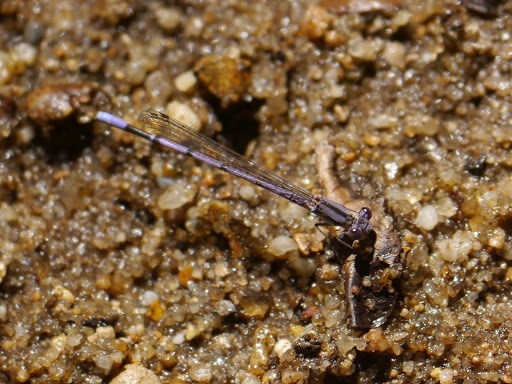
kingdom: Animalia
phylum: Arthropoda
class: Insecta
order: Odonata
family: Coenagrionidae
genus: Argia
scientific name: Argia fumipennis
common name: Variable dancer
